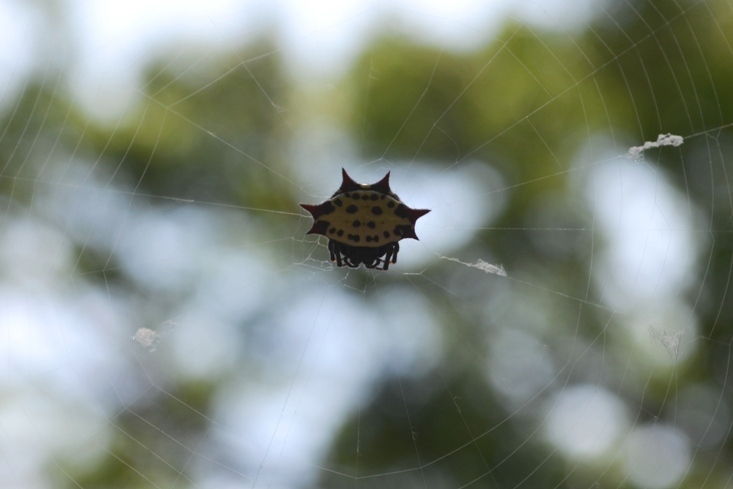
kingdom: Animalia
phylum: Arthropoda
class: Arachnida
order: Araneae
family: Araneidae
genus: Gasteracantha
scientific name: Gasteracantha cancriformis
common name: Orb weavers
